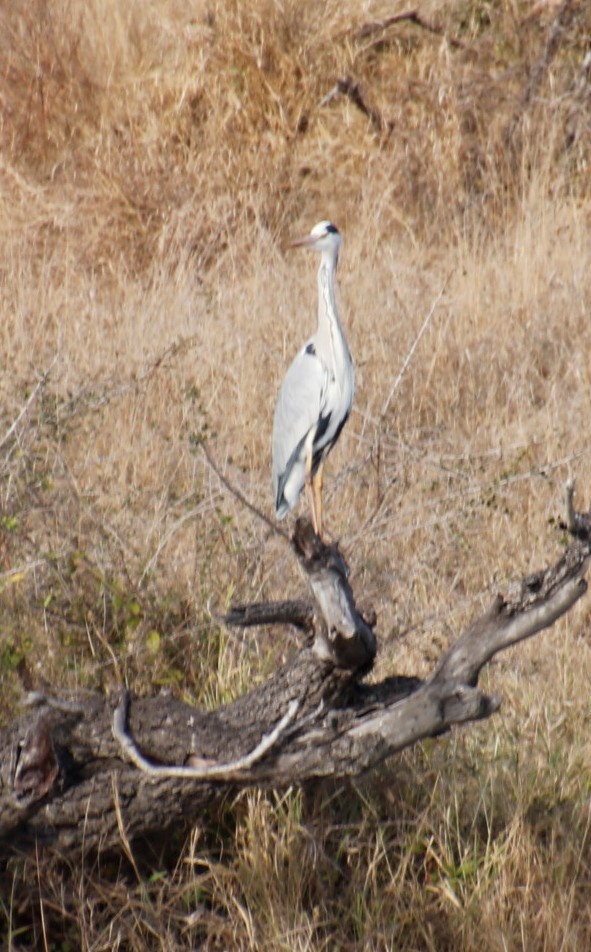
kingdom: Animalia
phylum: Chordata
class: Aves
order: Pelecaniformes
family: Ardeidae
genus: Ardea
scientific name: Ardea cinerea
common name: Grey heron
